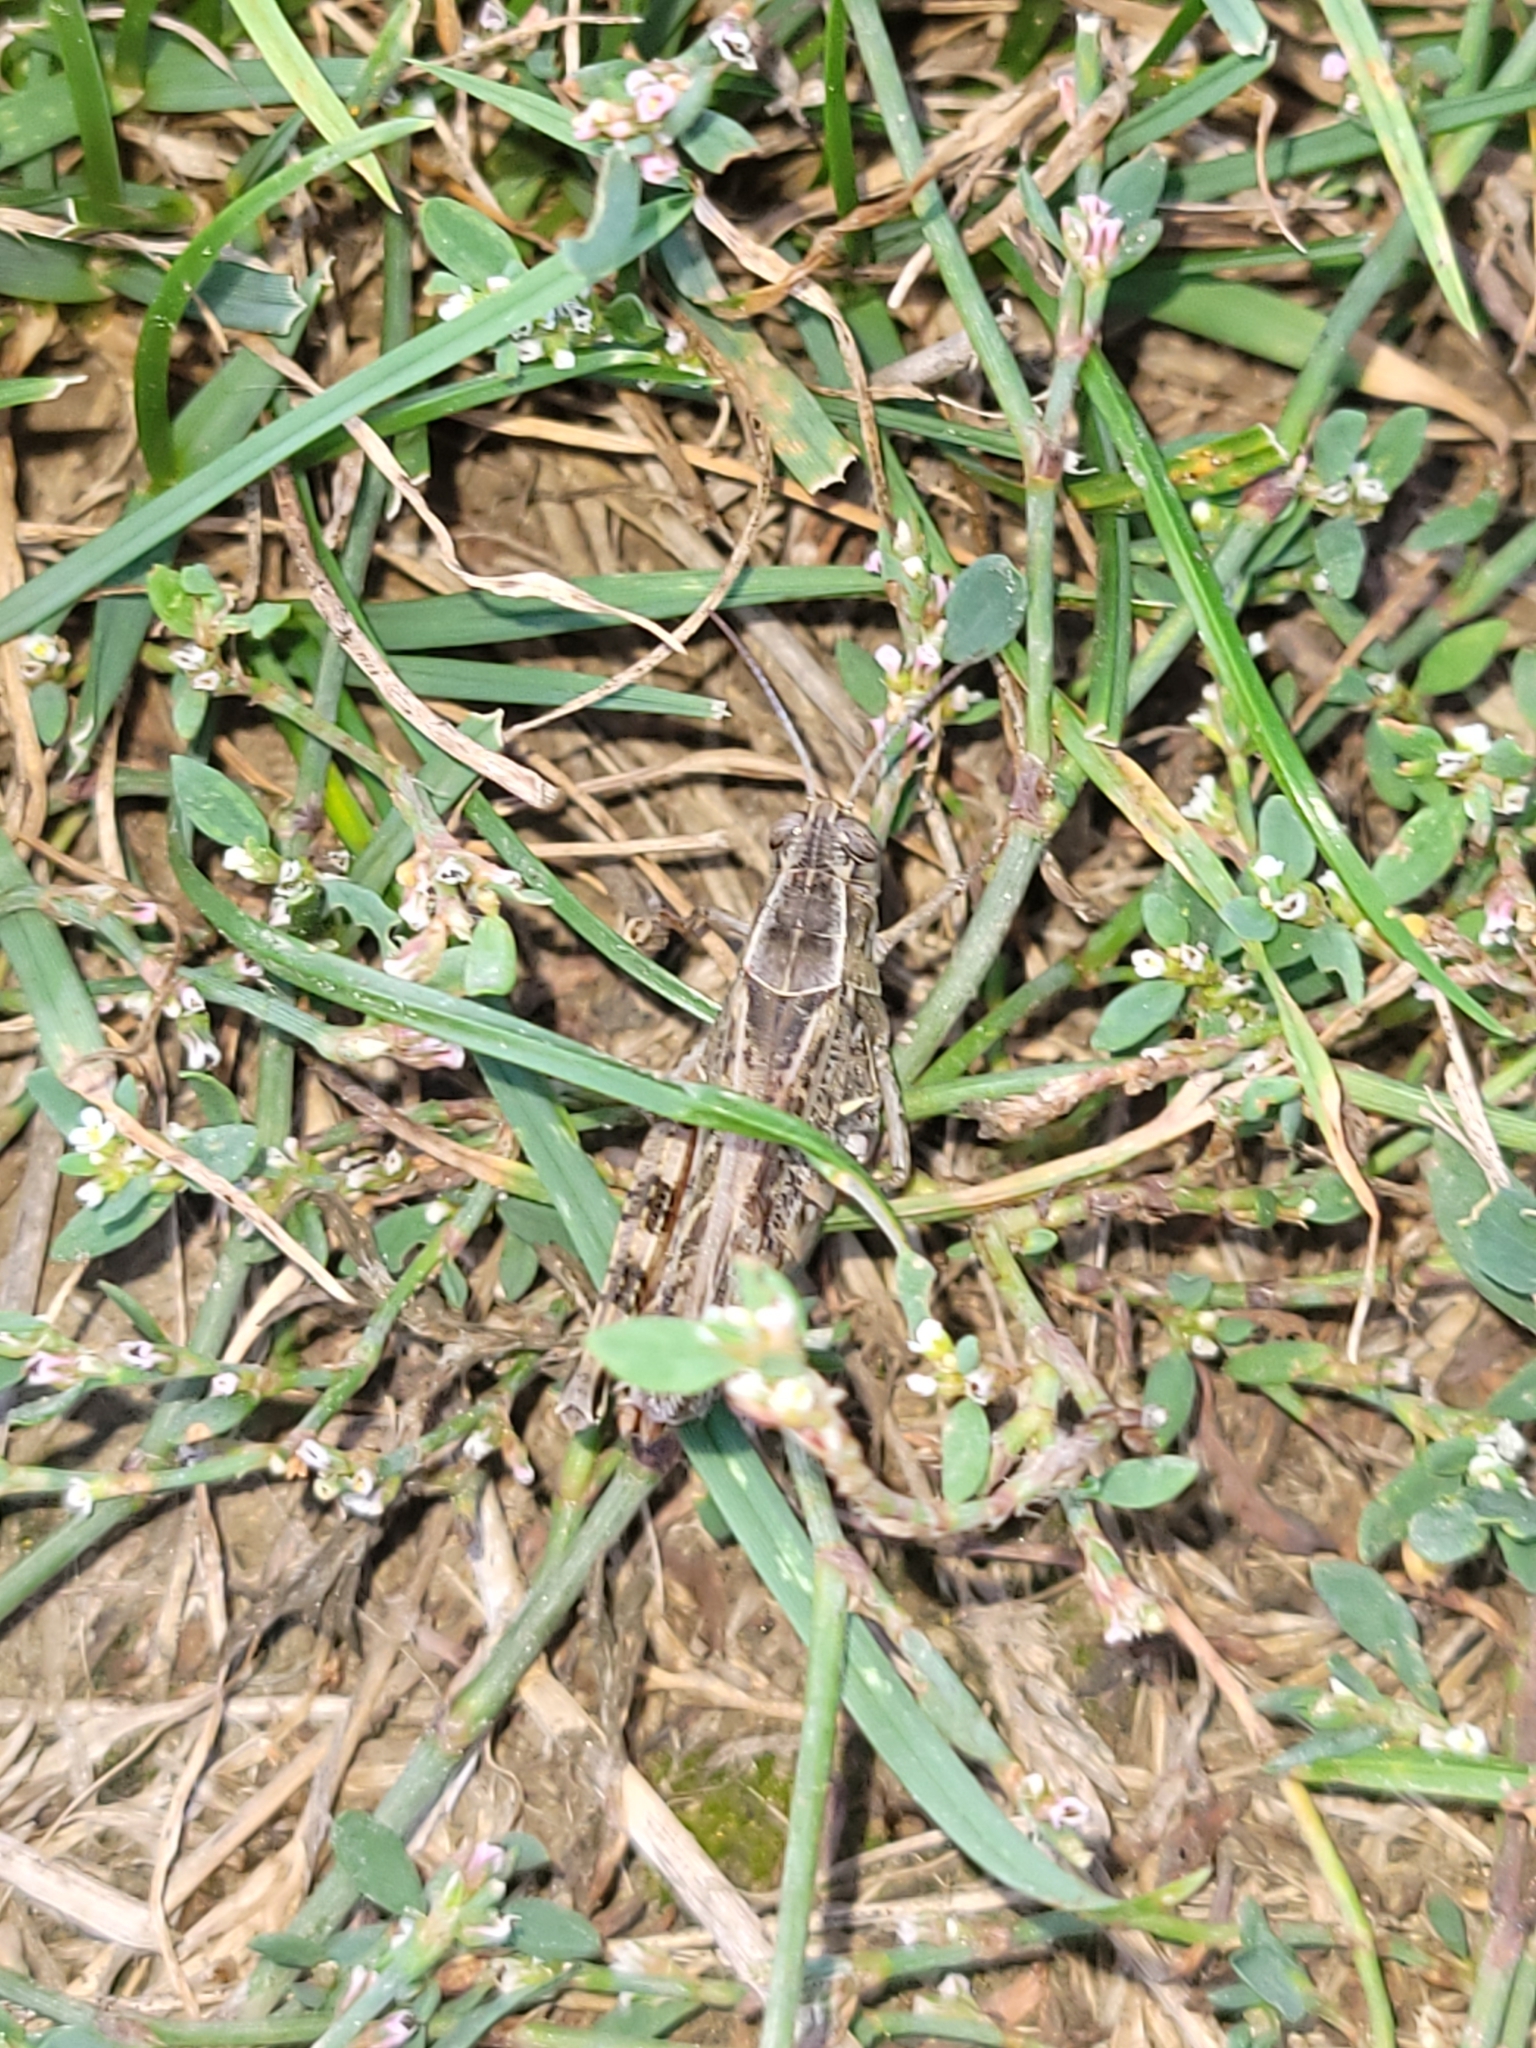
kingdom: Animalia
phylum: Arthropoda
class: Insecta
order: Orthoptera
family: Acrididae
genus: Calliptamus
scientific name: Calliptamus italicus
